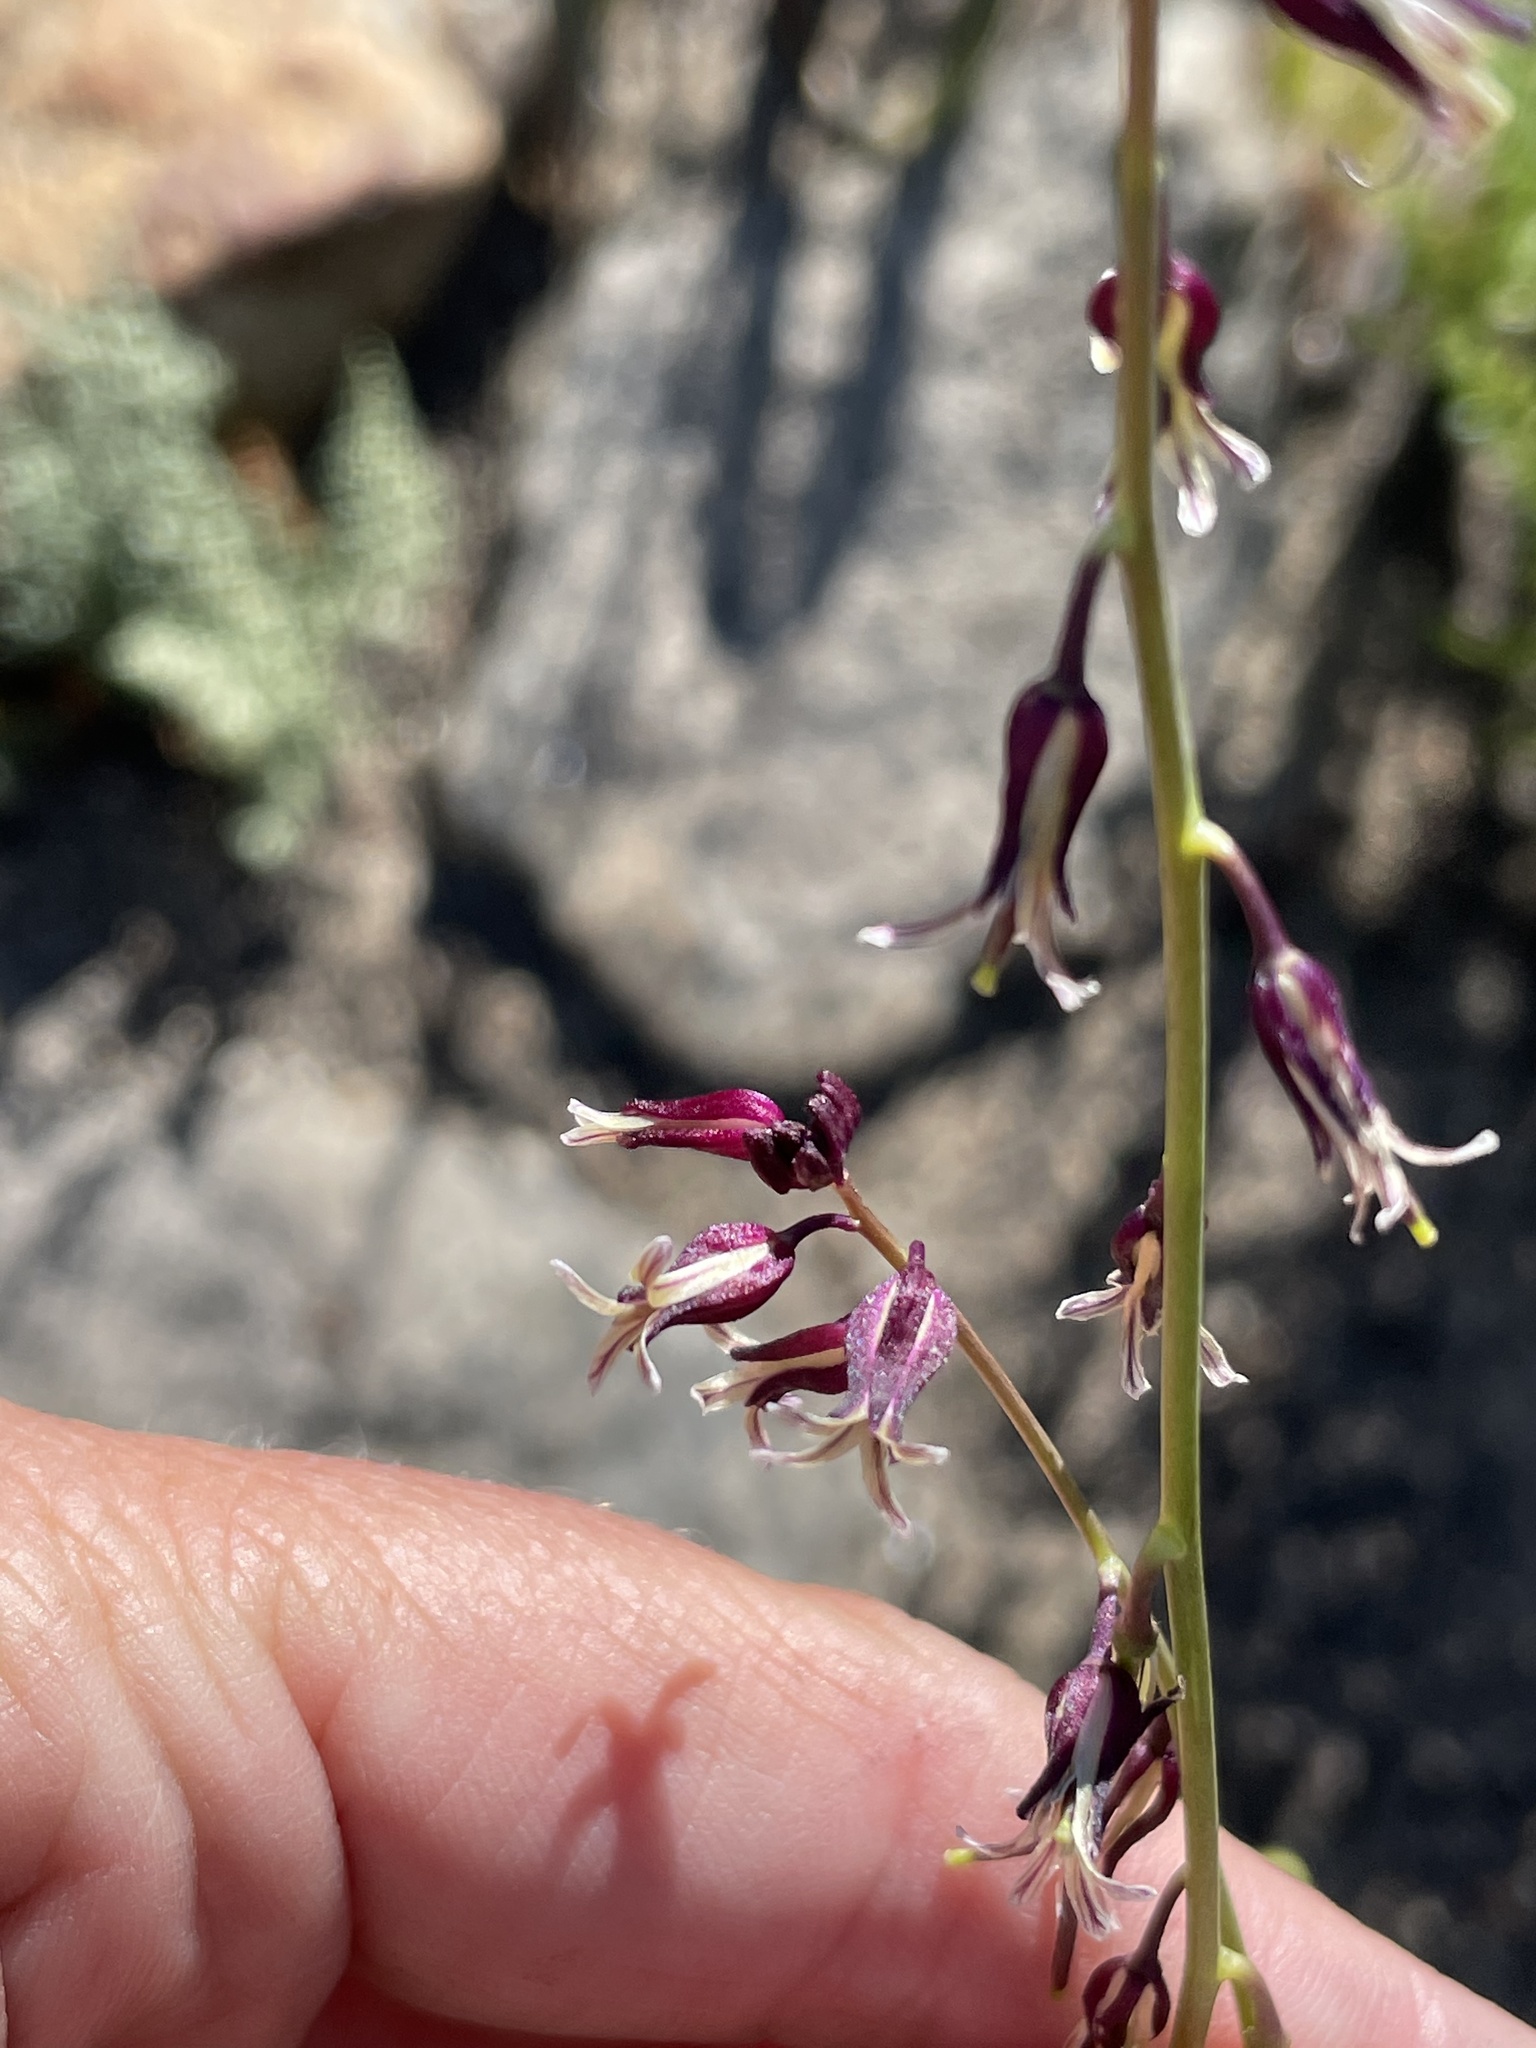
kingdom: Plantae
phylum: Tracheophyta
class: Magnoliopsida
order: Brassicales
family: Brassicaceae
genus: Streptanthus
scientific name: Streptanthus heterophyllus
